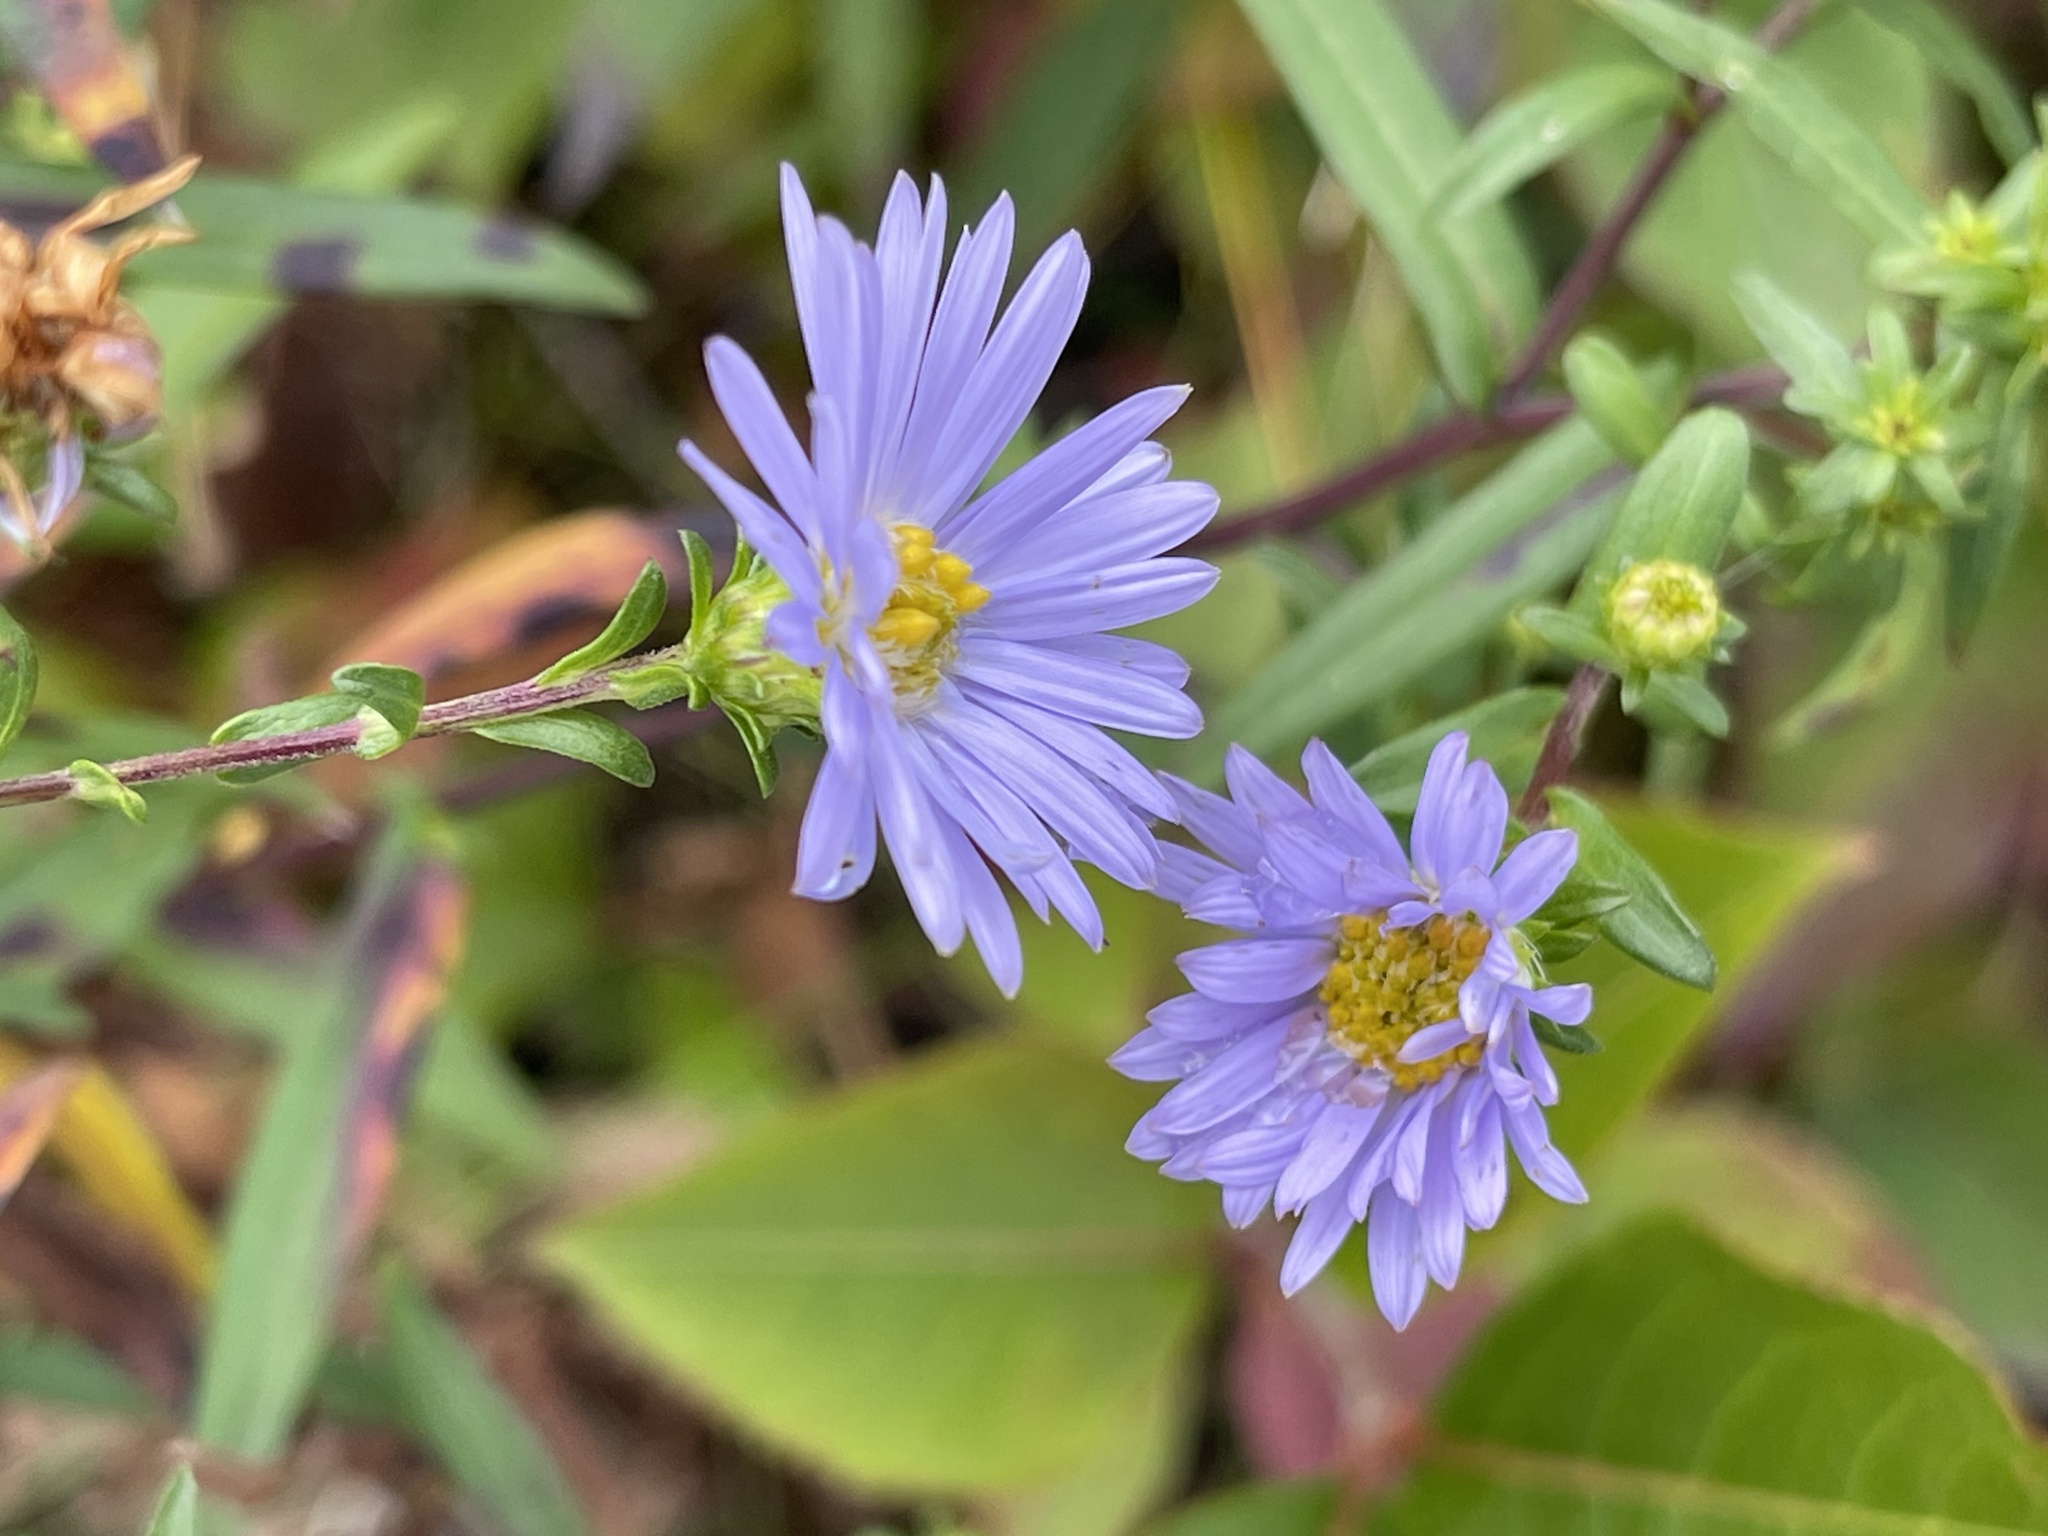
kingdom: Plantae
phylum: Tracheophyta
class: Magnoliopsida
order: Asterales
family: Asteraceae
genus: Symphyotrichum
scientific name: Symphyotrichum novi-belgii
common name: Michaelmas daisy
